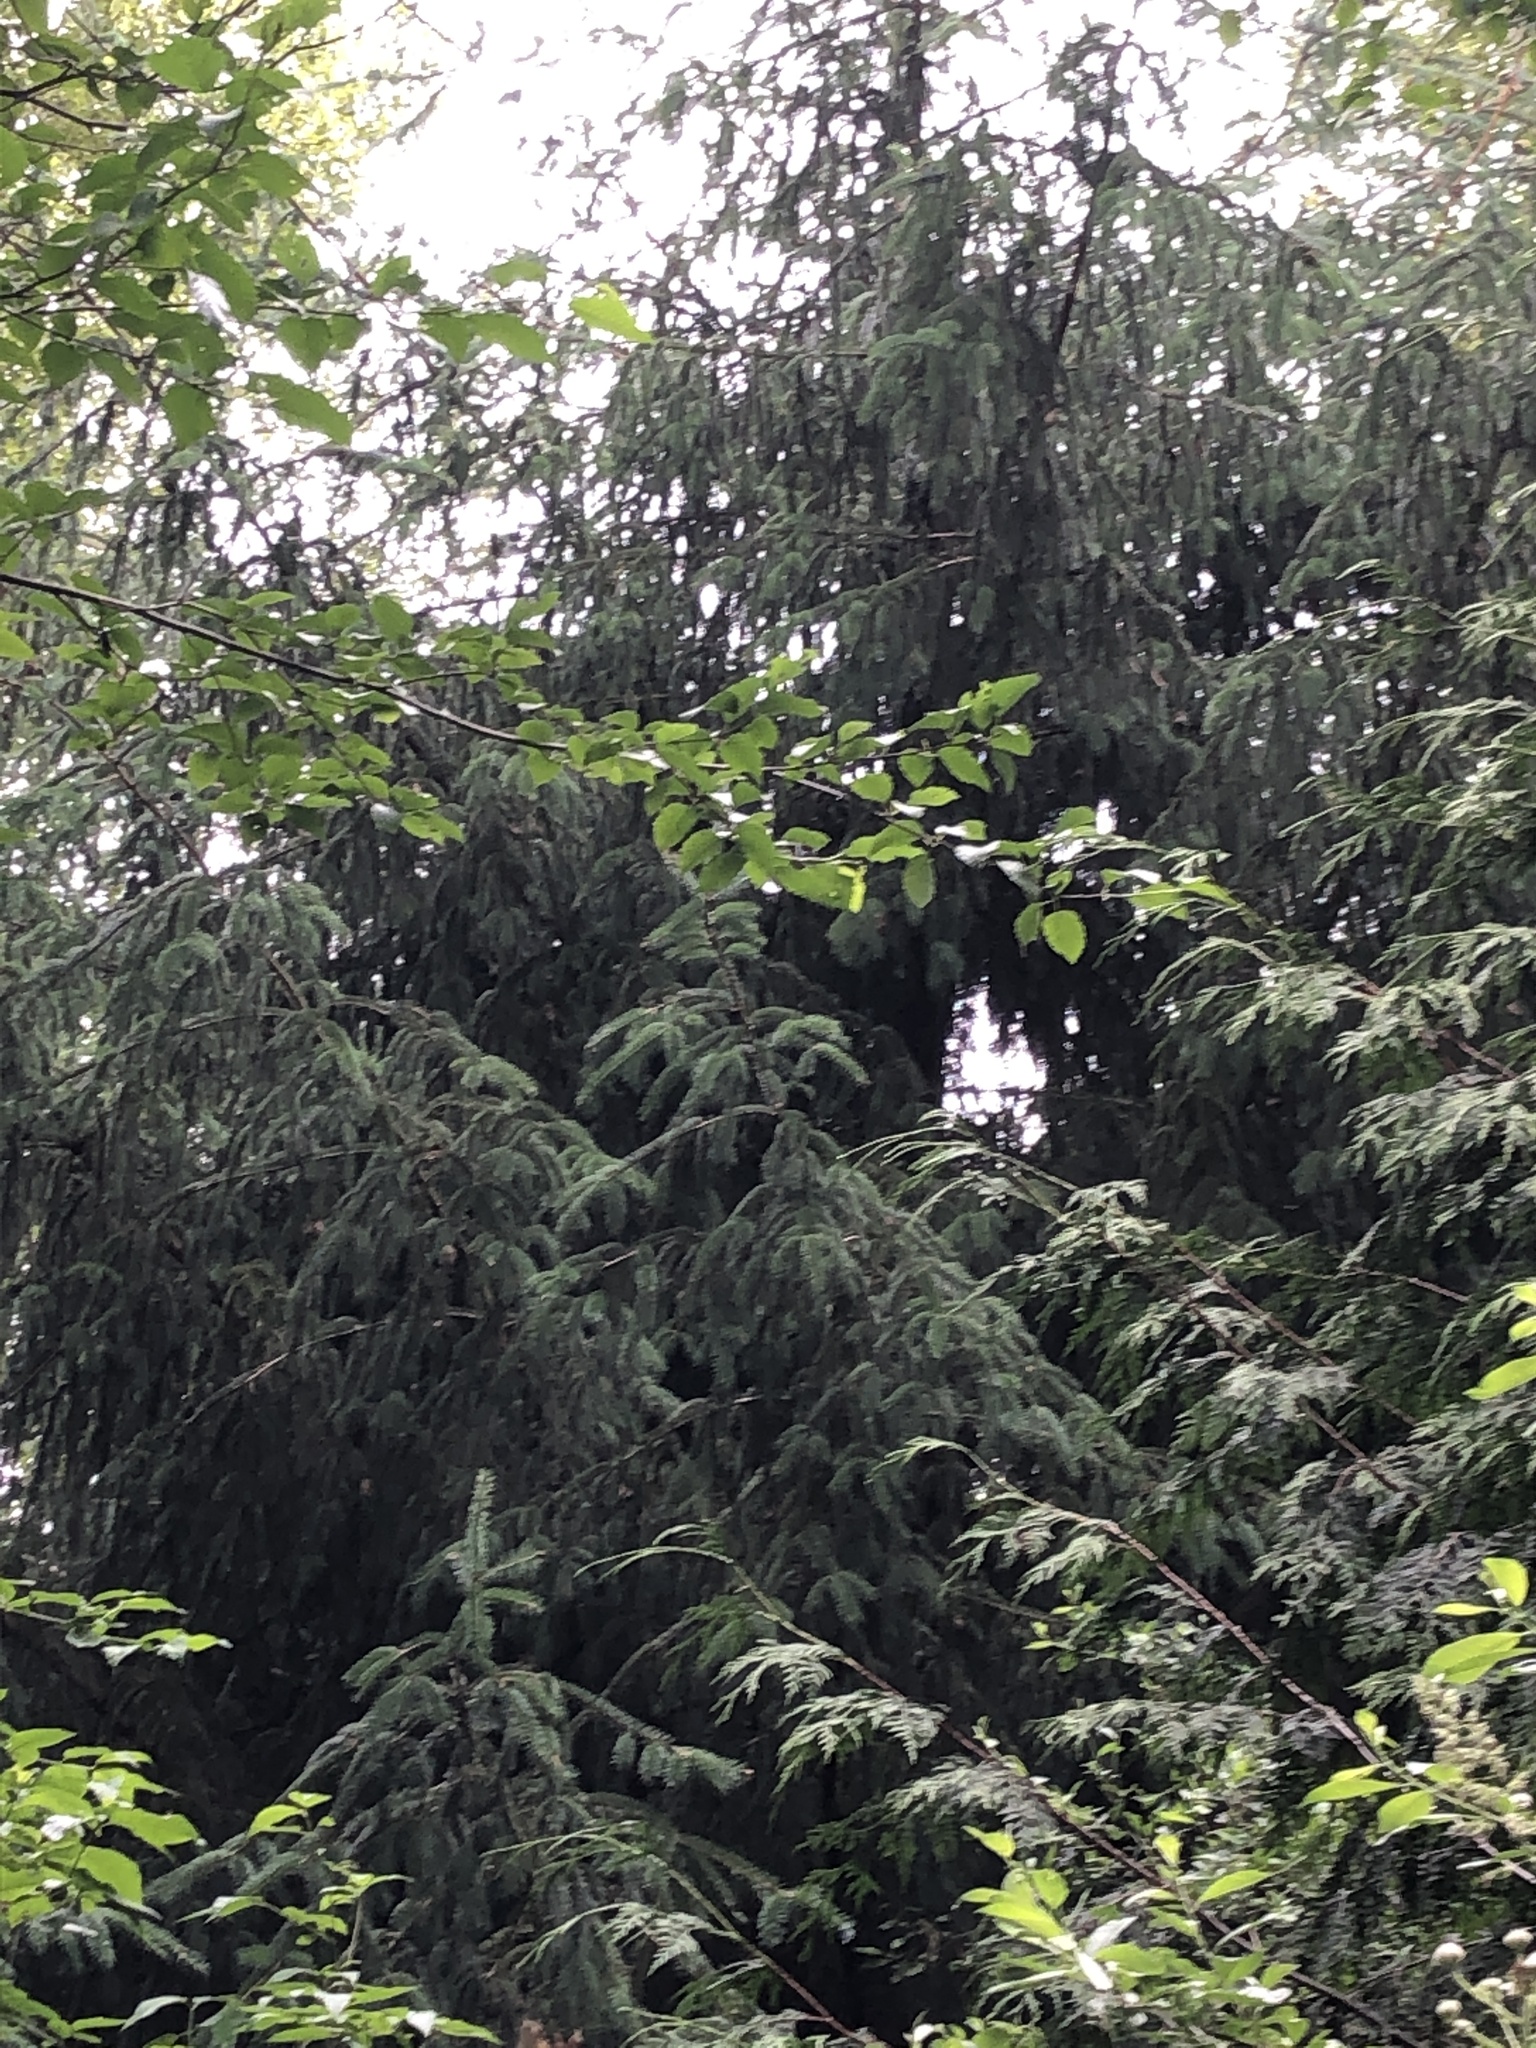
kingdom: Plantae
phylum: Tracheophyta
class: Pinopsida
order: Pinales
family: Pinaceae
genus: Picea
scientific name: Picea sitchensis
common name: Sitka spruce
